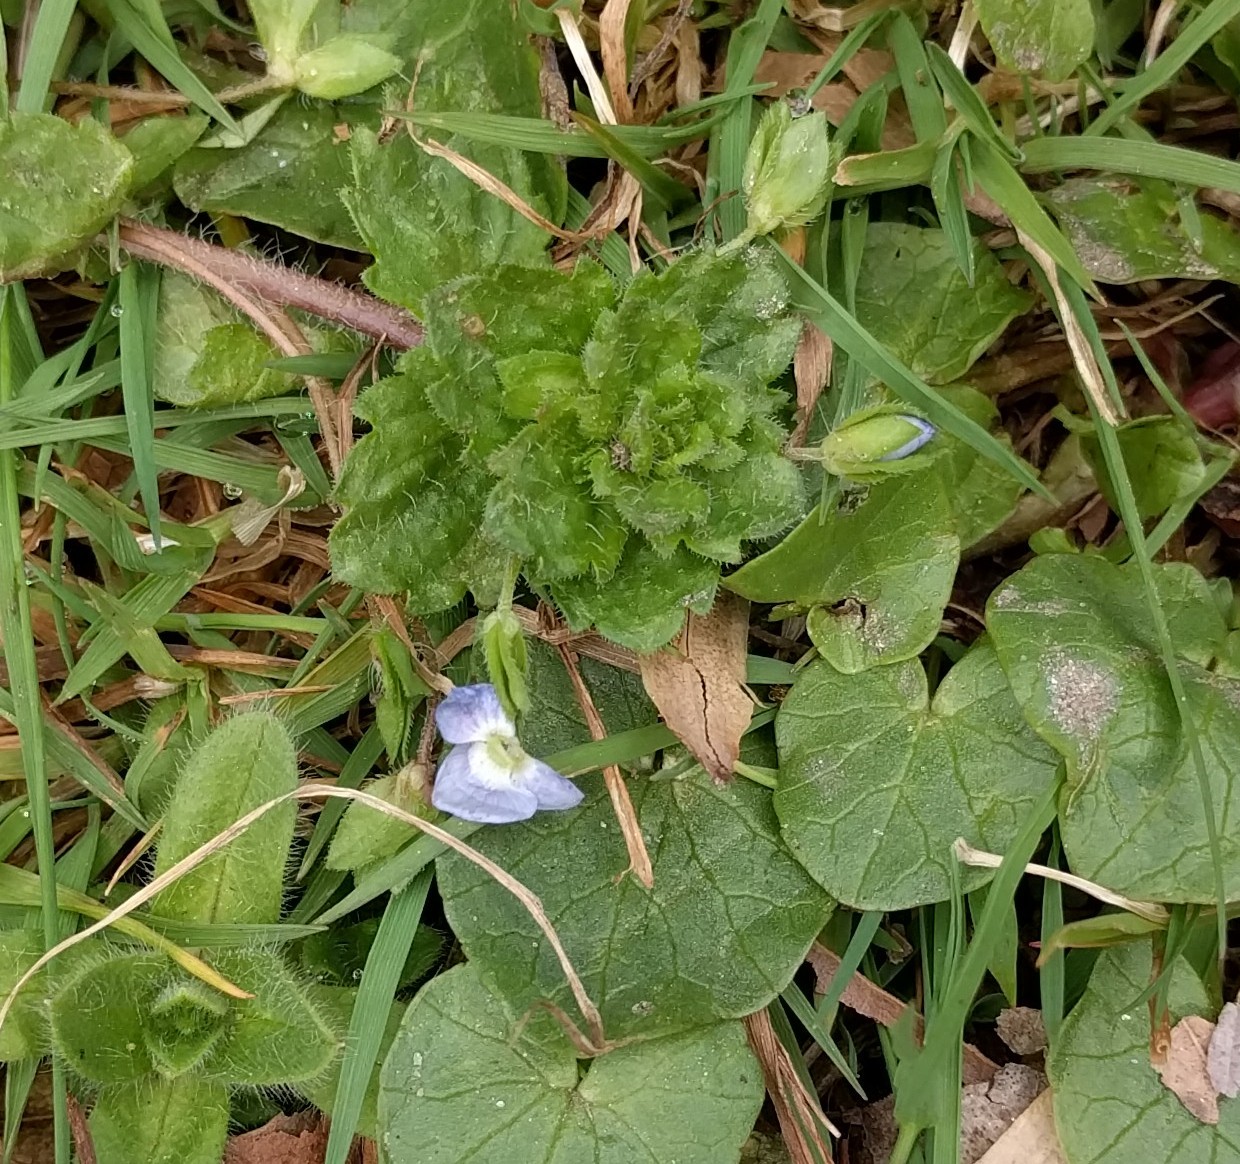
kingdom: Plantae
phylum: Tracheophyta
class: Magnoliopsida
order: Lamiales
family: Plantaginaceae
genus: Veronica
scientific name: Veronica persica
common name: Common field-speedwell
